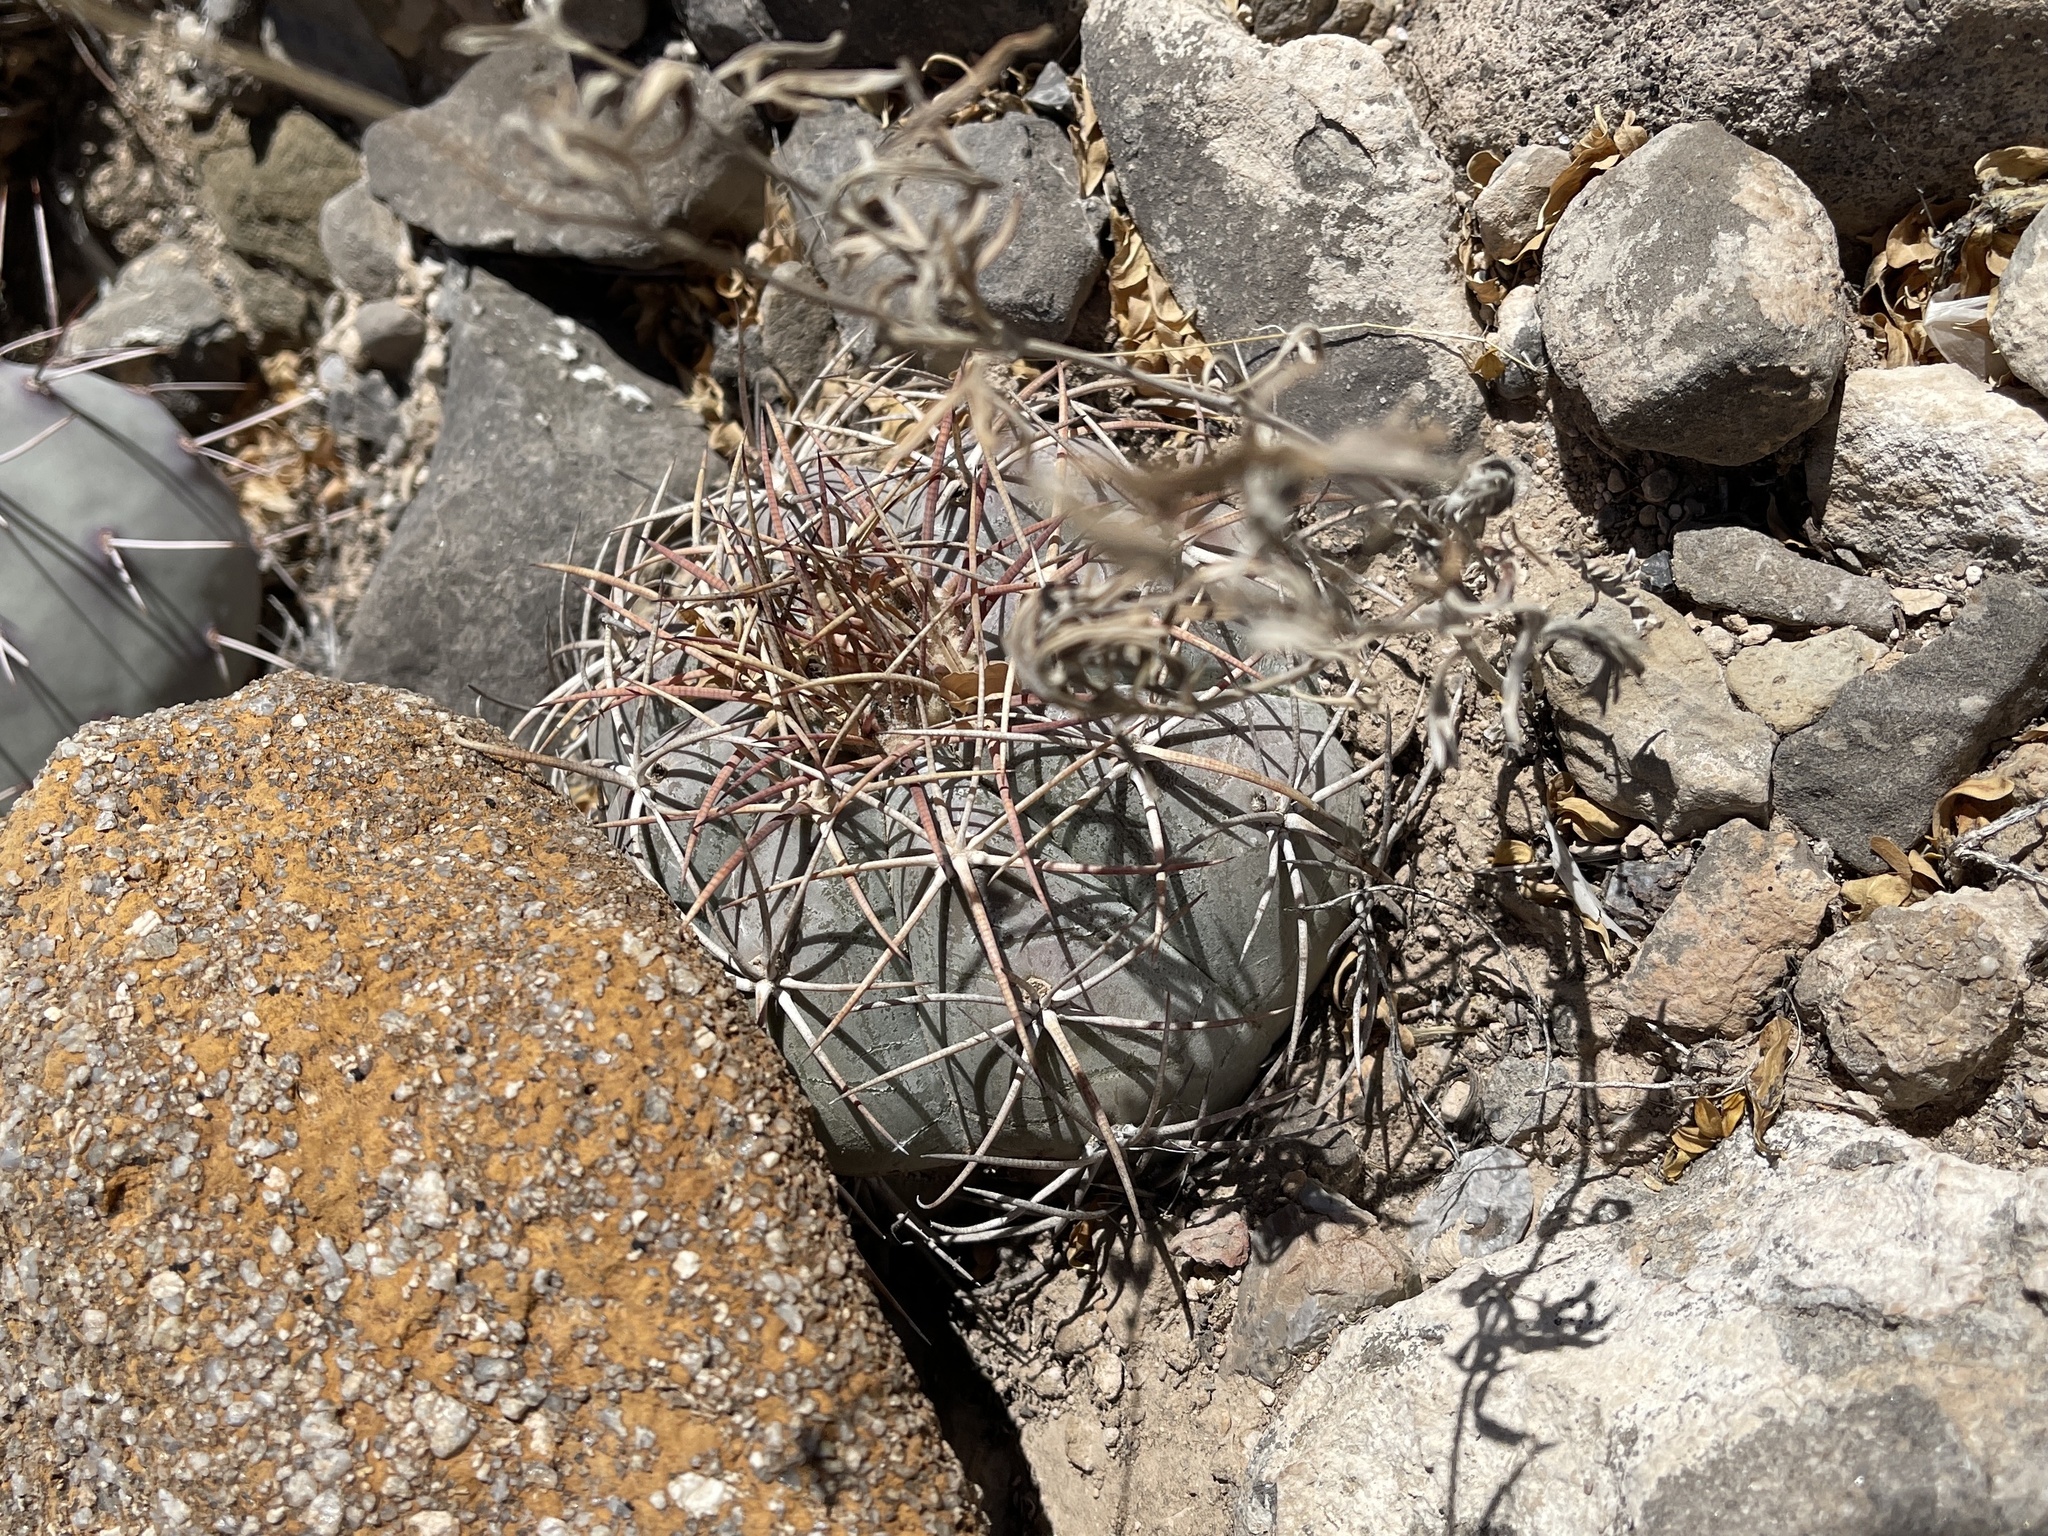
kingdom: Plantae
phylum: Tracheophyta
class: Magnoliopsida
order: Caryophyllales
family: Cactaceae
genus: Echinocactus
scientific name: Echinocactus horizonthalonius
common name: Devilshead
